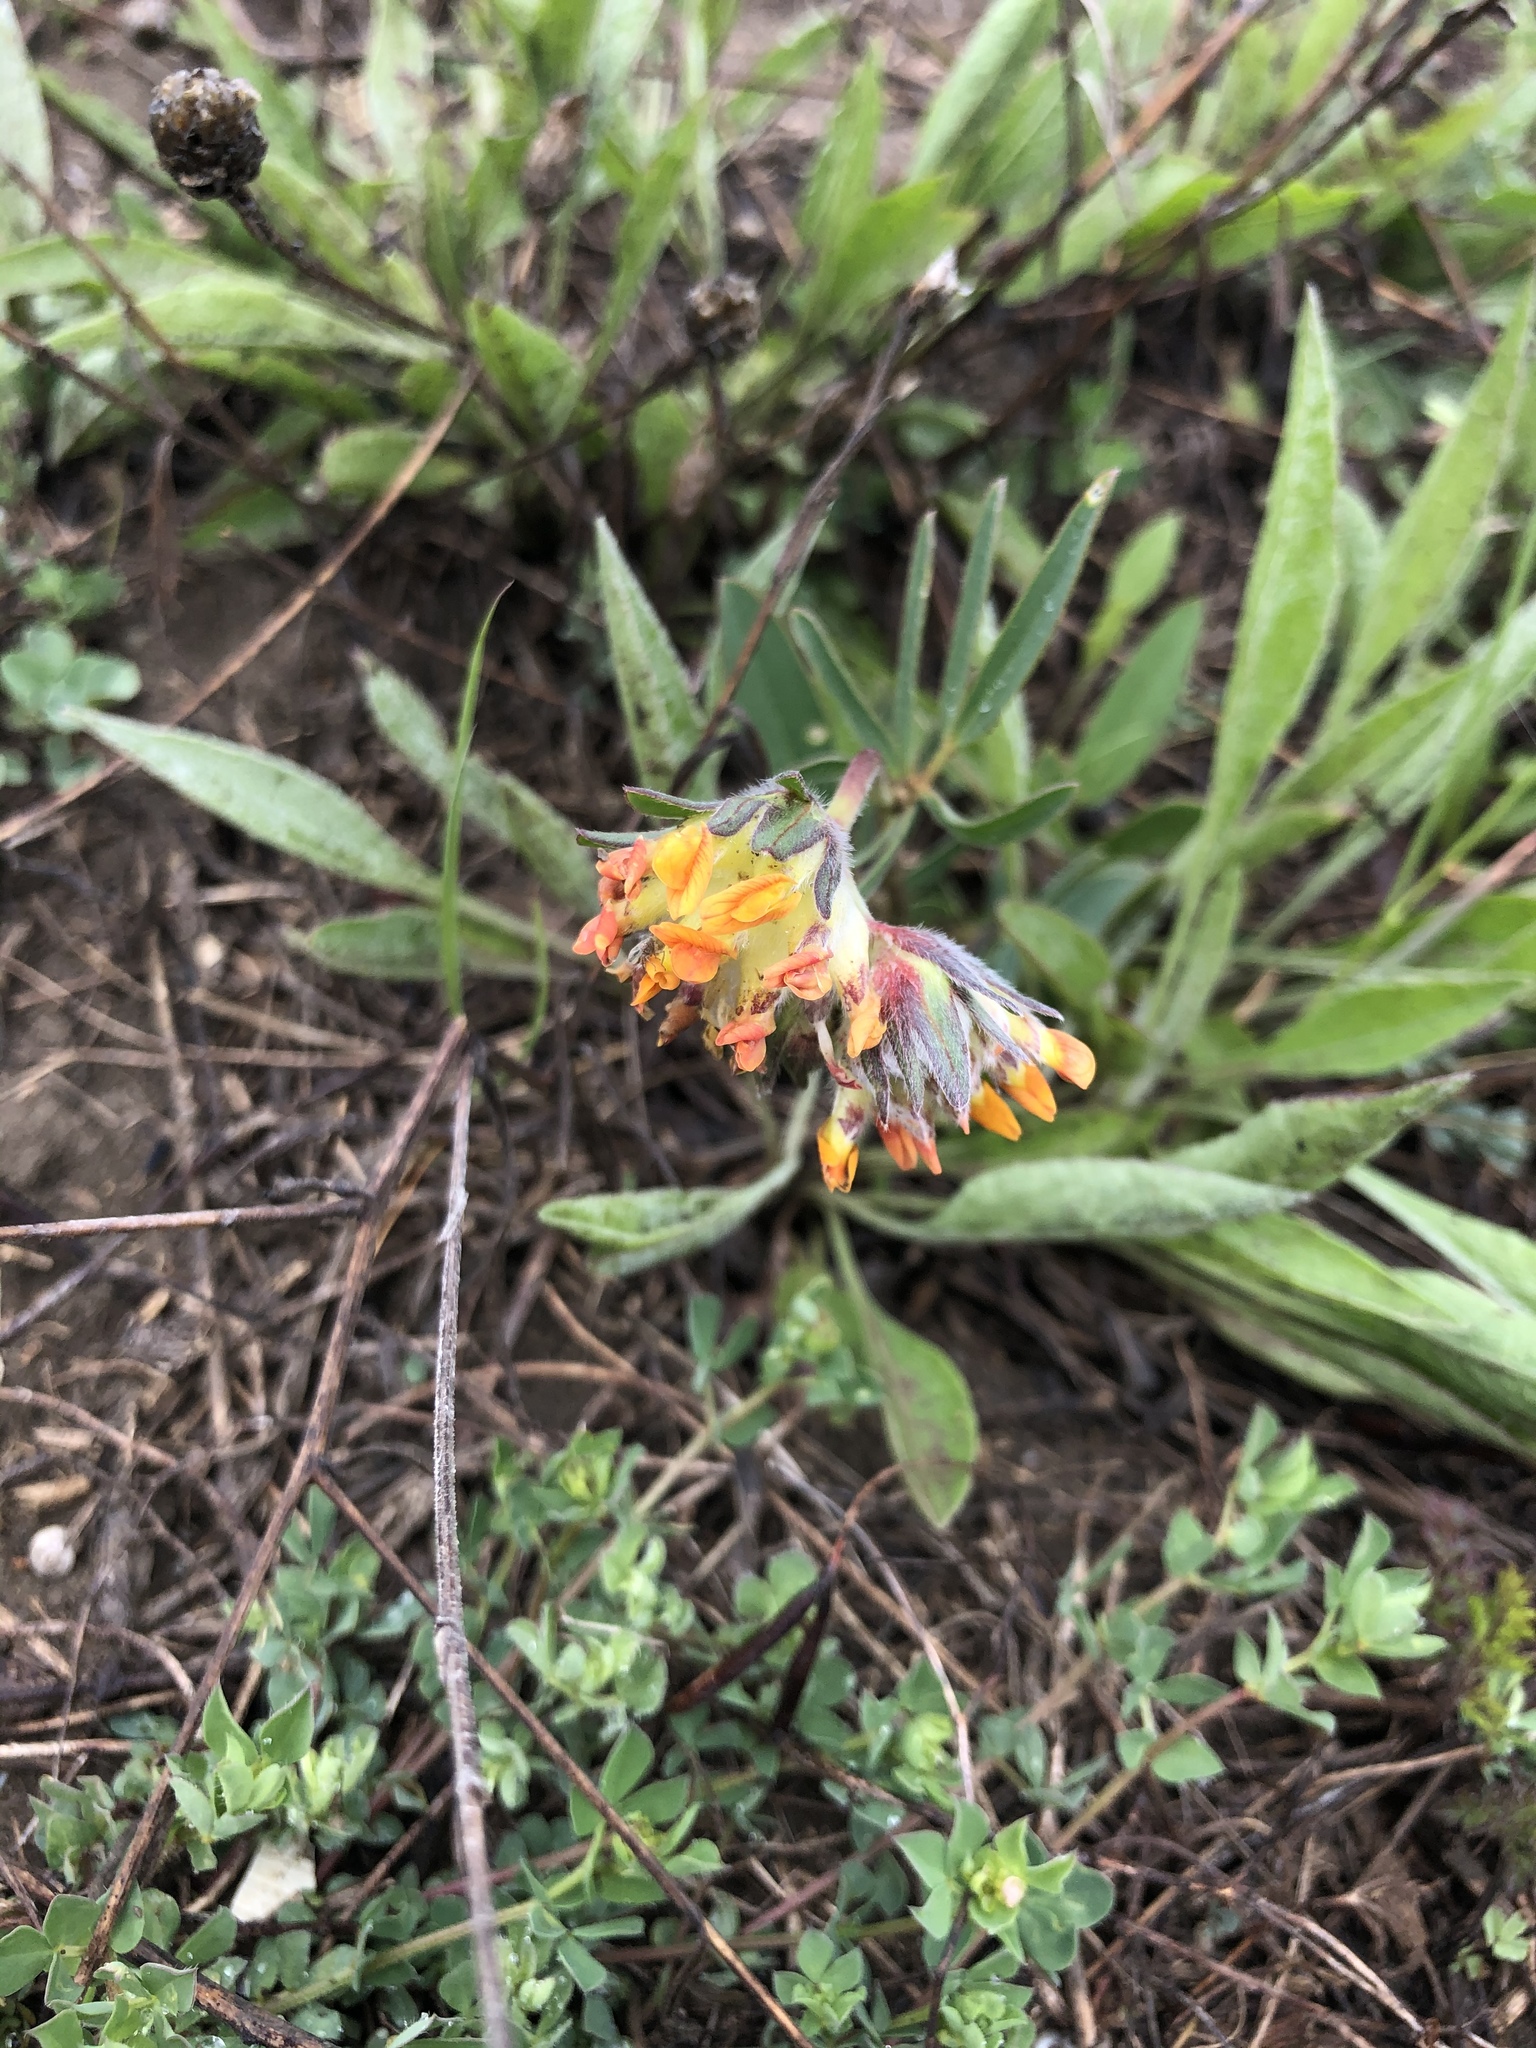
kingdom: Plantae
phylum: Tracheophyta
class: Magnoliopsida
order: Fabales
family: Fabaceae
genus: Anthyllis
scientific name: Anthyllis vulneraria
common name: Kidney vetch
